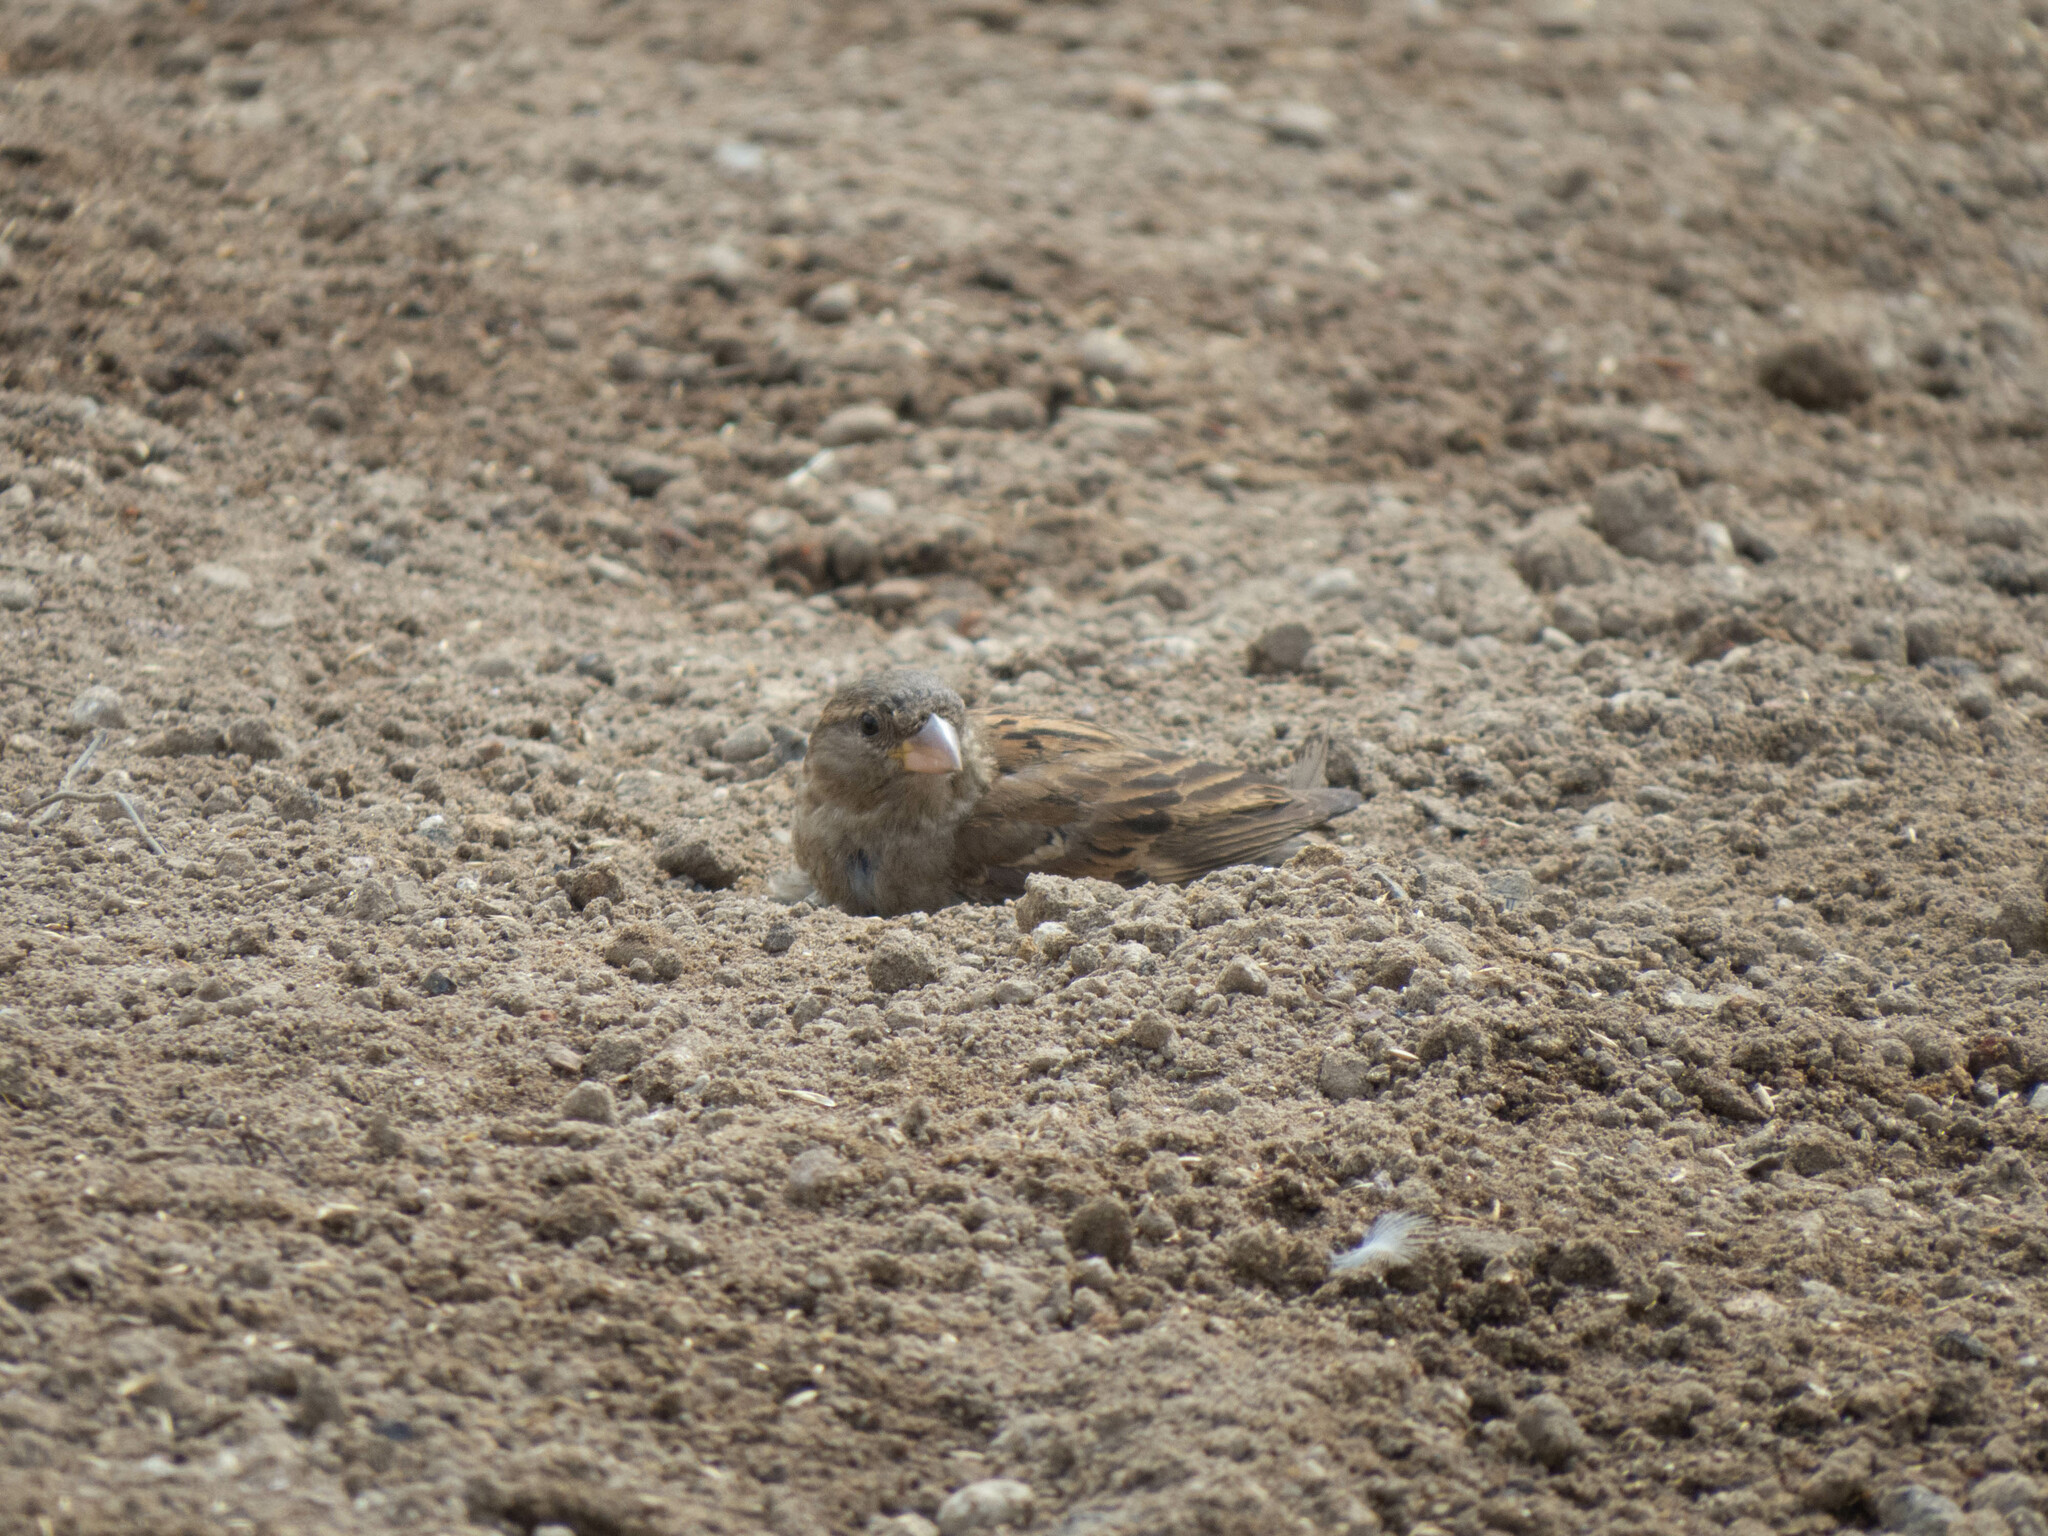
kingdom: Animalia
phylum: Chordata
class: Aves
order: Passeriformes
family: Passeridae
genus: Passer
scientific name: Passer domesticus
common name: House sparrow
